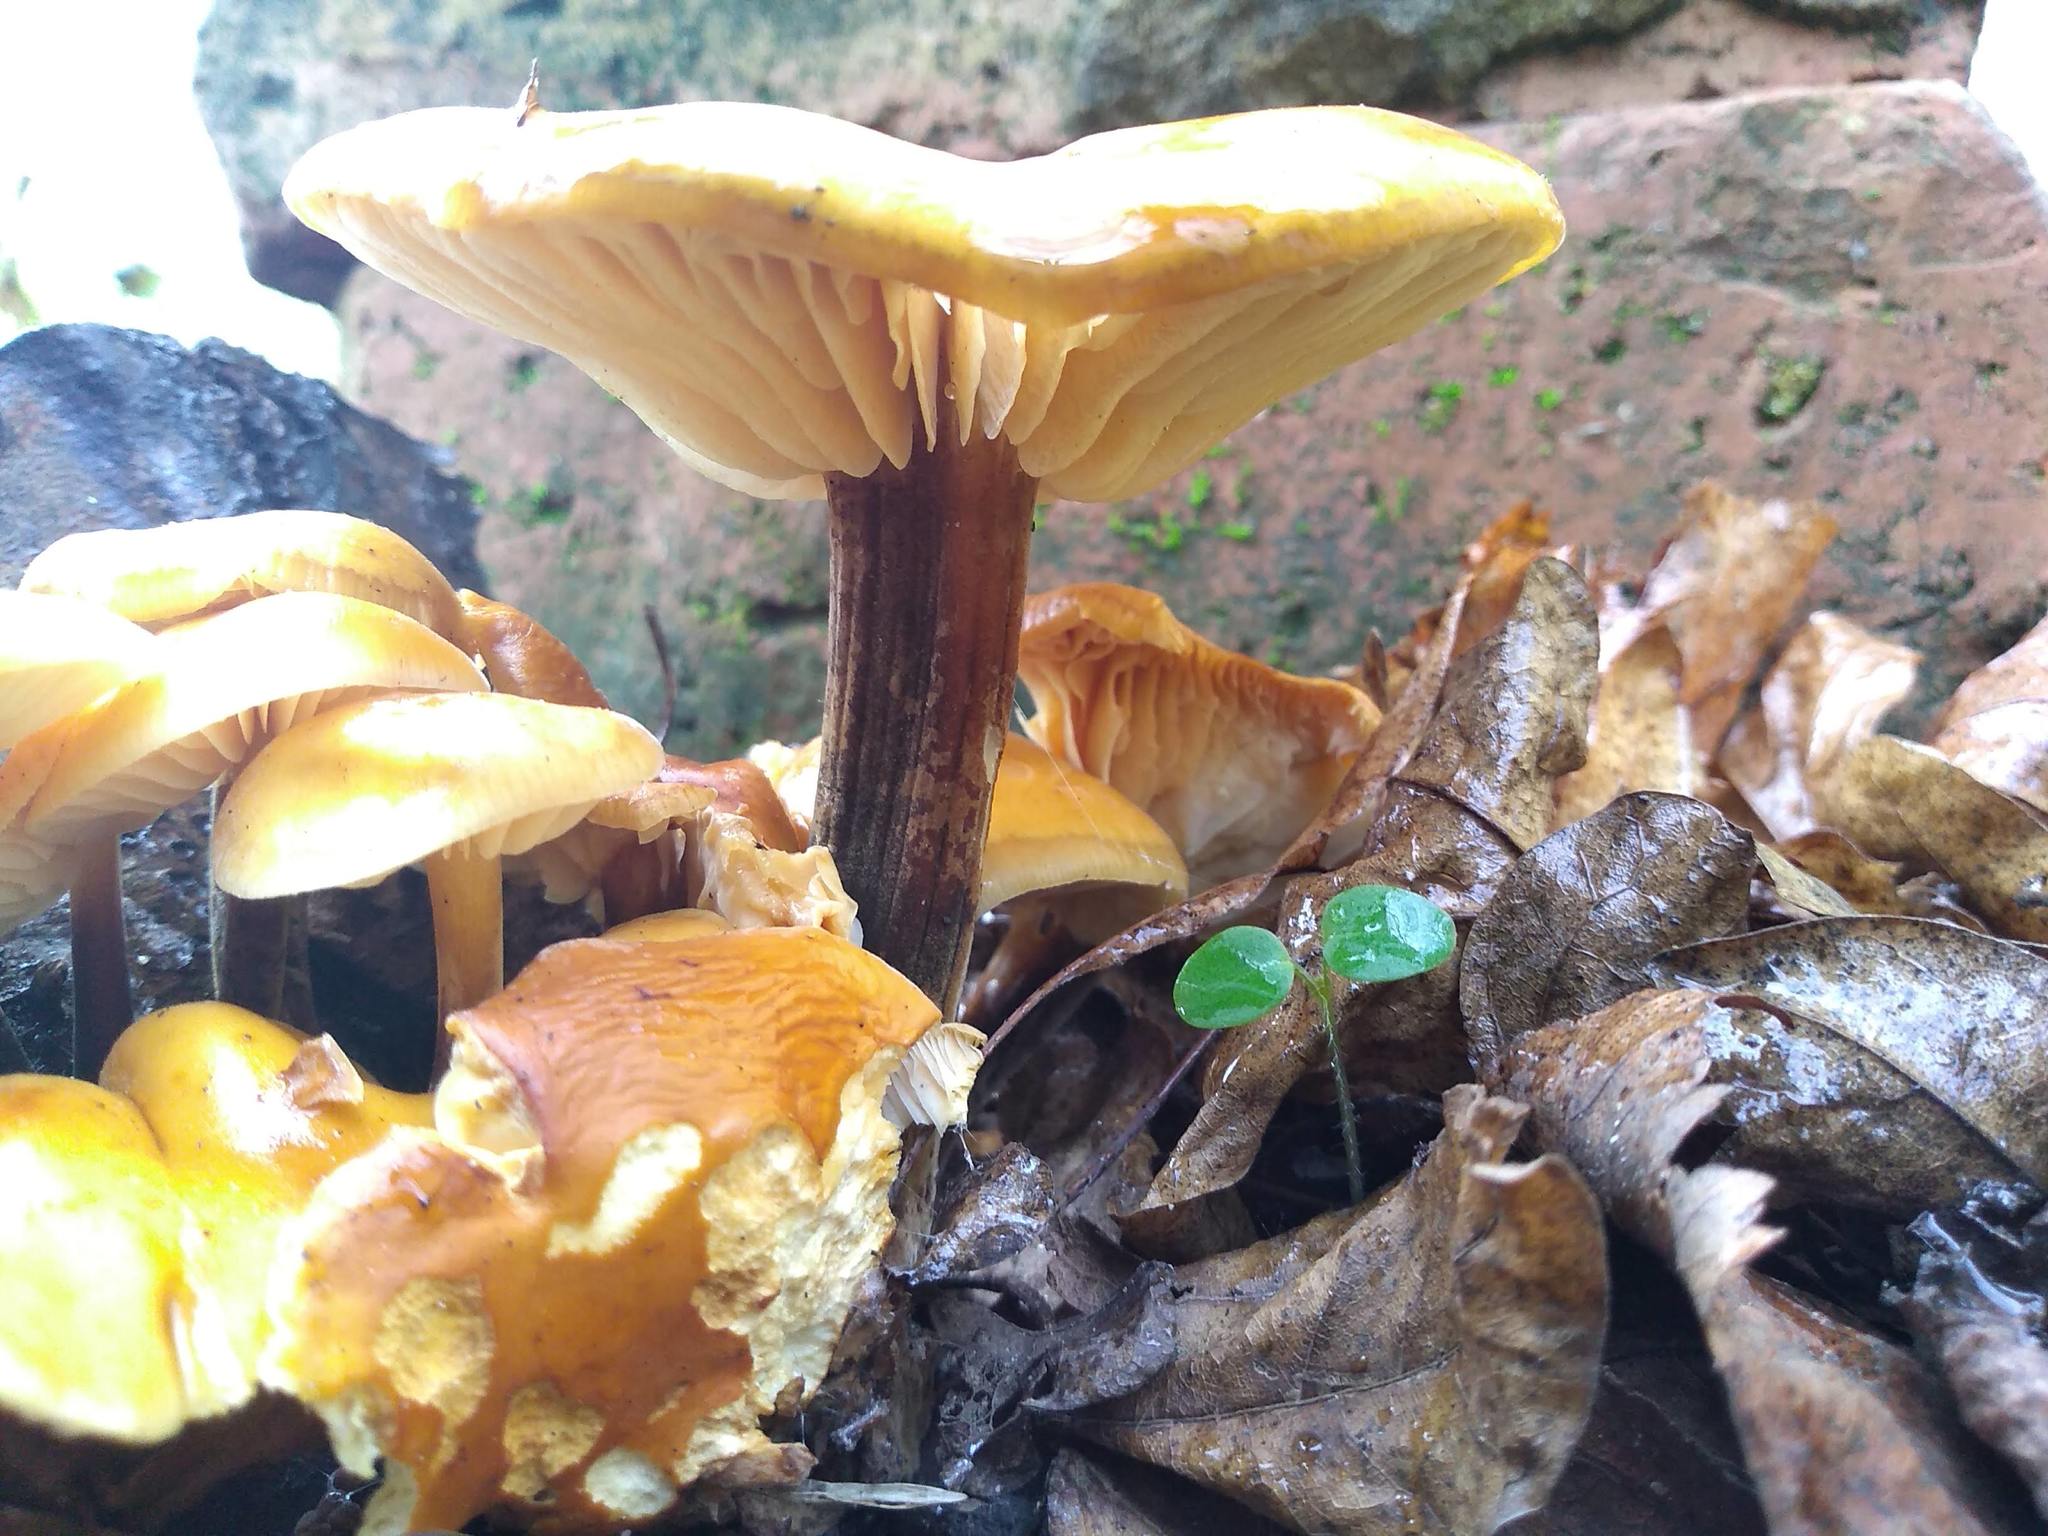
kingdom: Fungi
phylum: Basidiomycota
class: Agaricomycetes
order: Agaricales
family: Physalacriaceae
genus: Flammulina
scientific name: Flammulina
